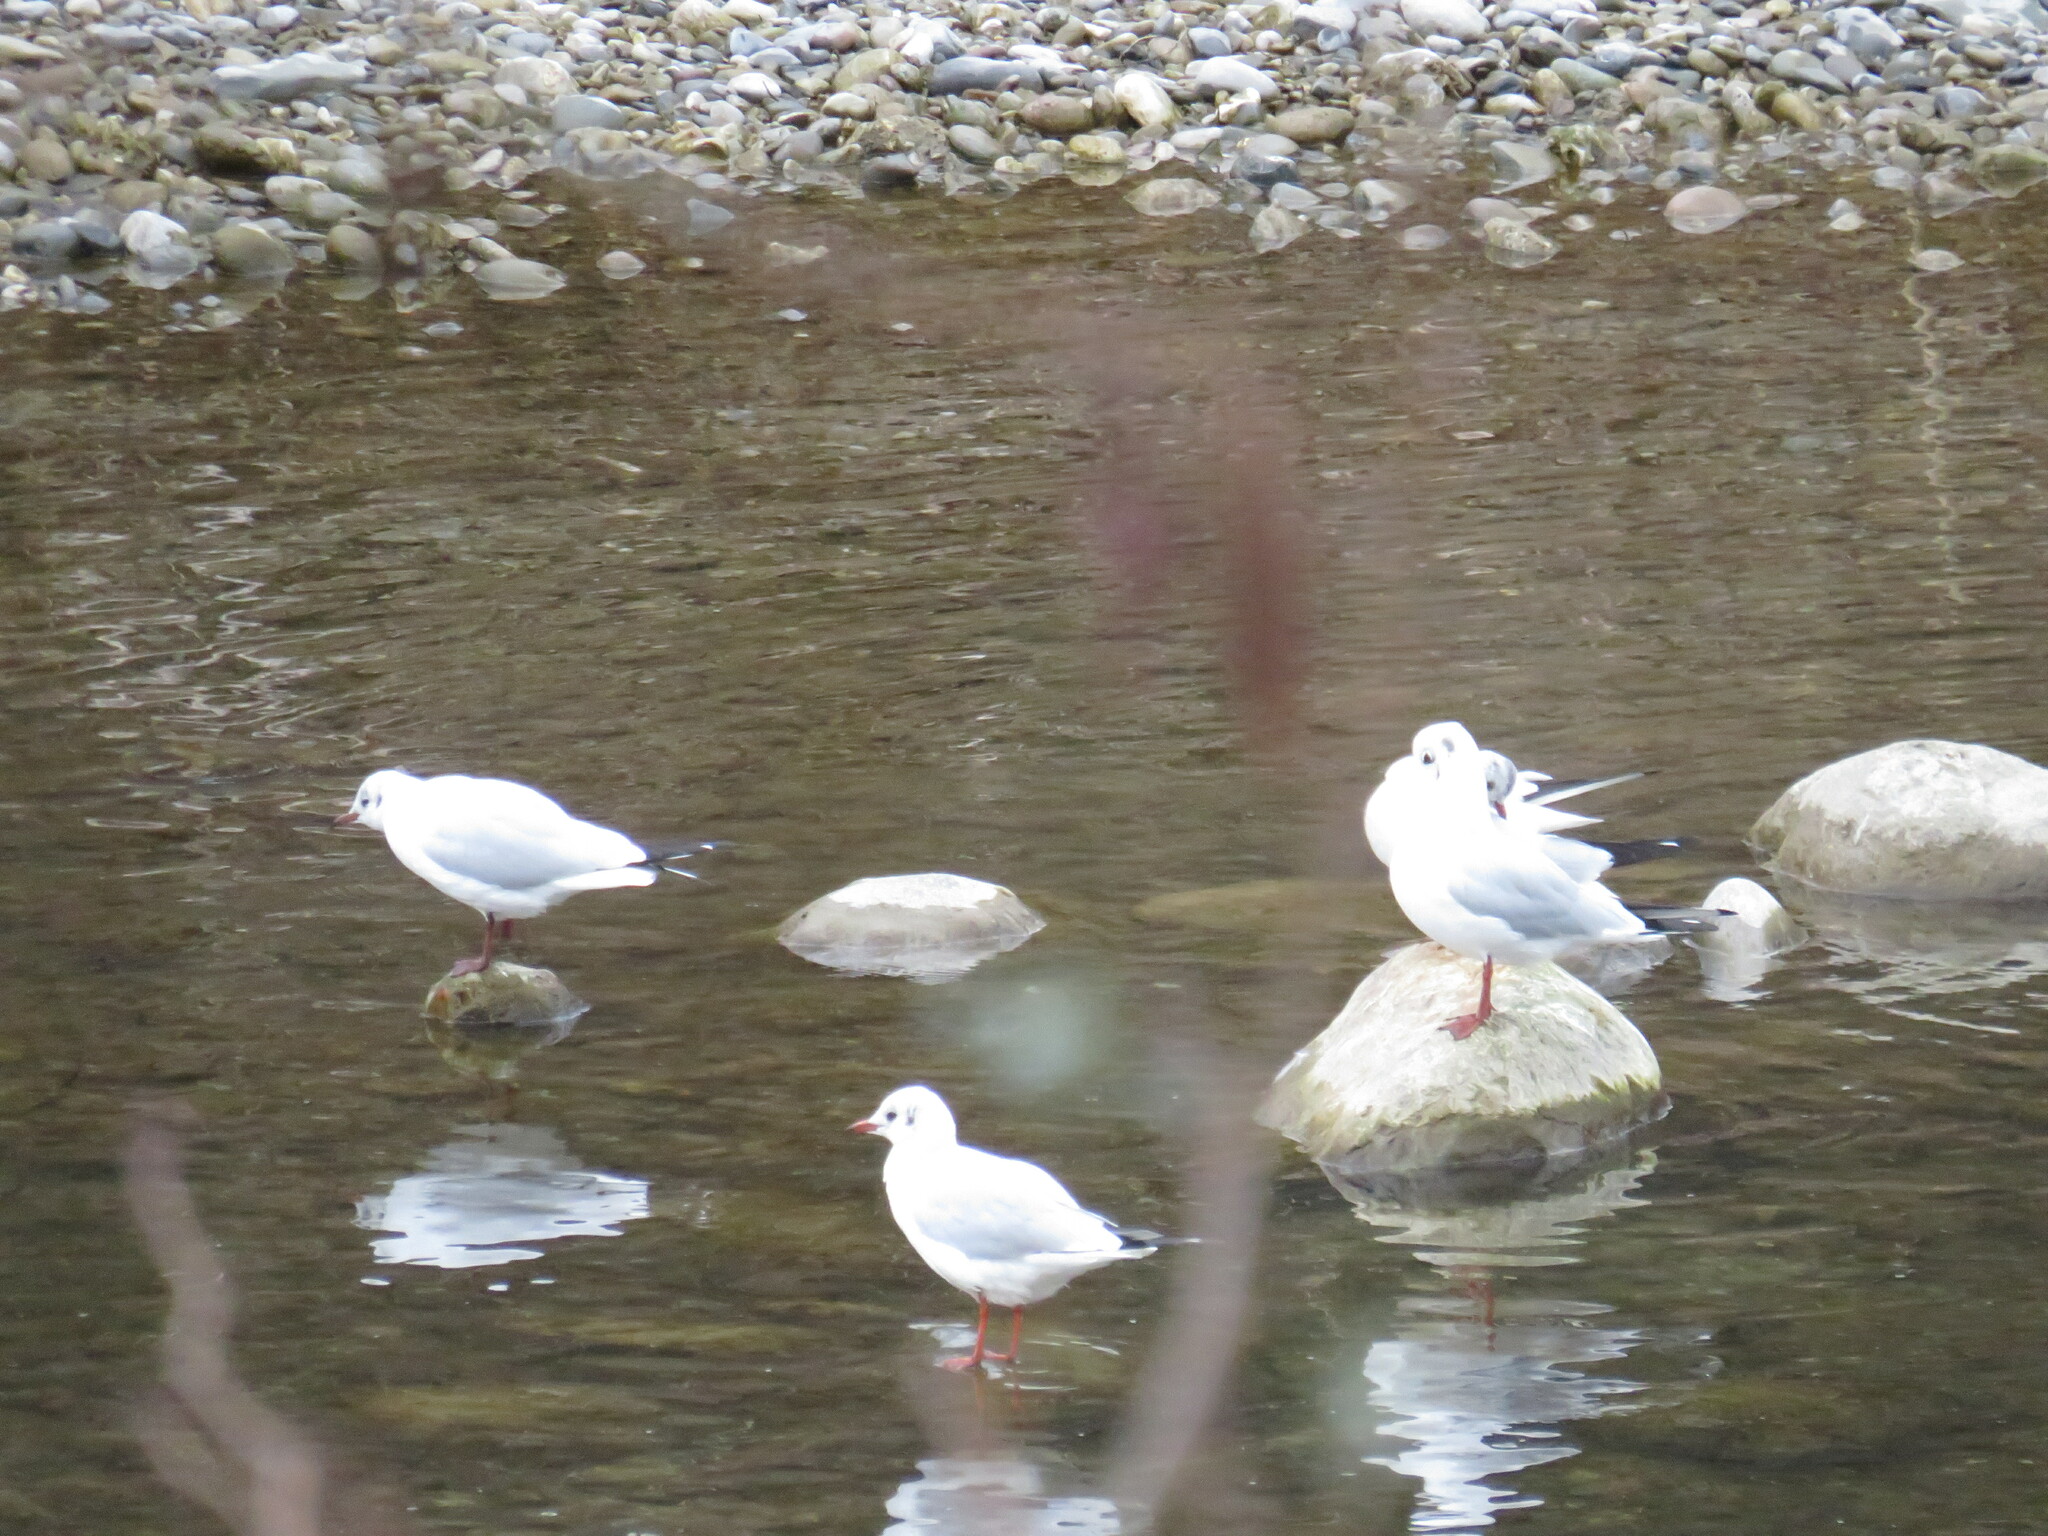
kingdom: Animalia
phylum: Chordata
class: Aves
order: Charadriiformes
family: Laridae
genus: Chroicocephalus
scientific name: Chroicocephalus ridibundus
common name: Black-headed gull
